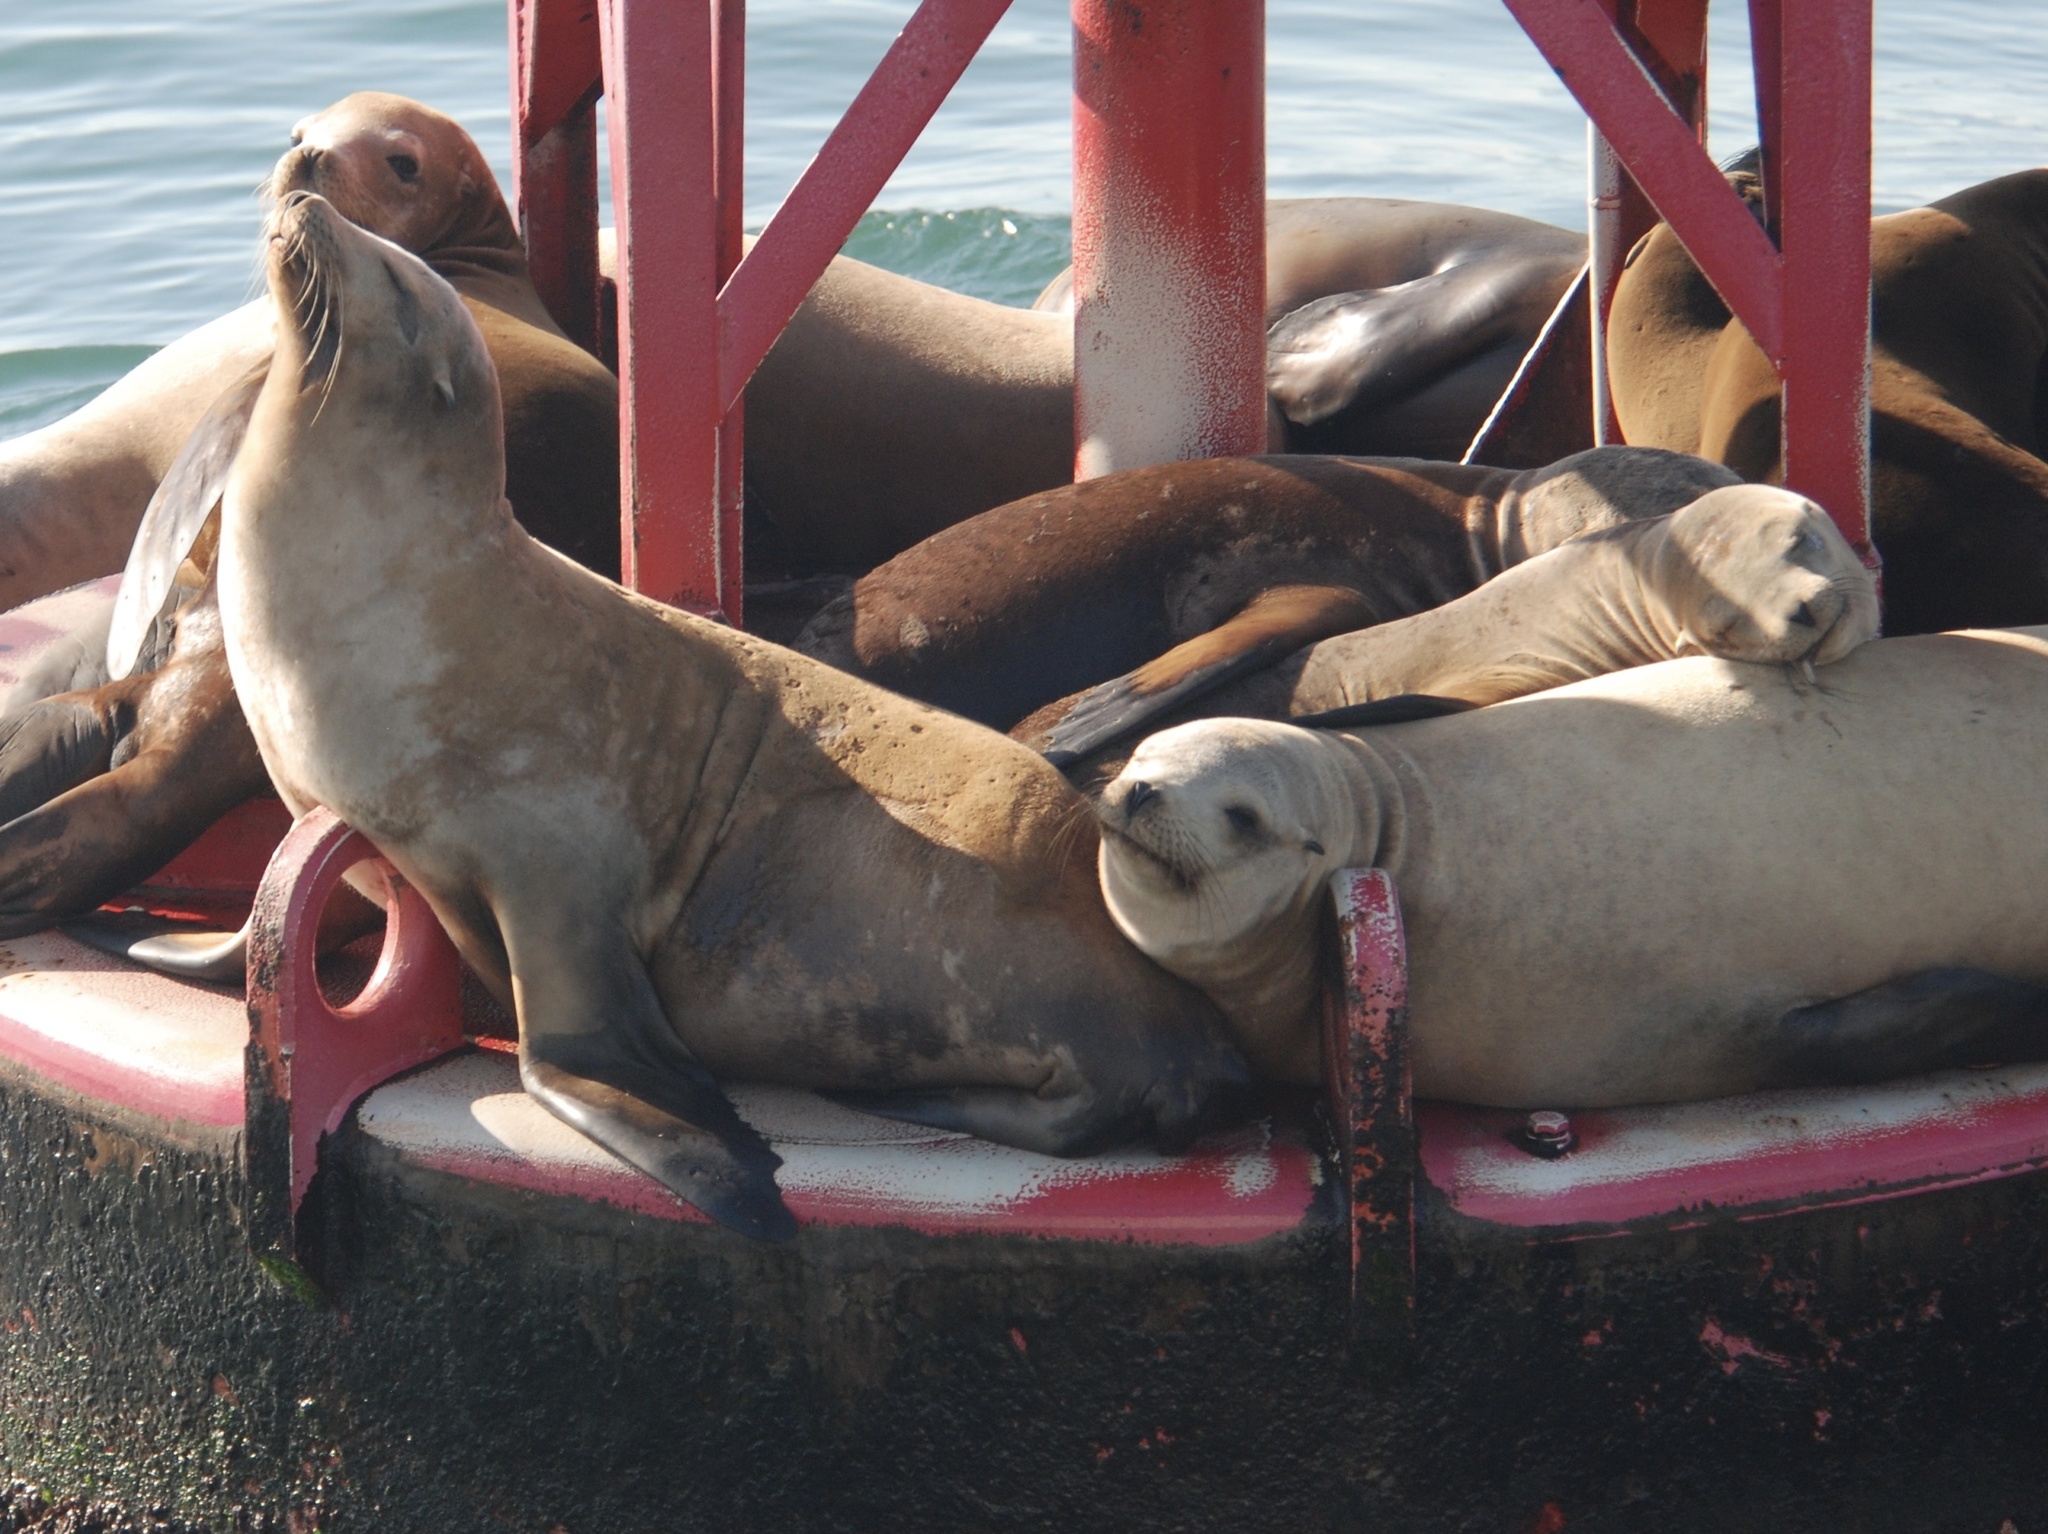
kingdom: Animalia
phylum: Chordata
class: Mammalia
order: Carnivora
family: Otariidae
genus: Zalophus
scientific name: Zalophus californianus
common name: California sea lion
